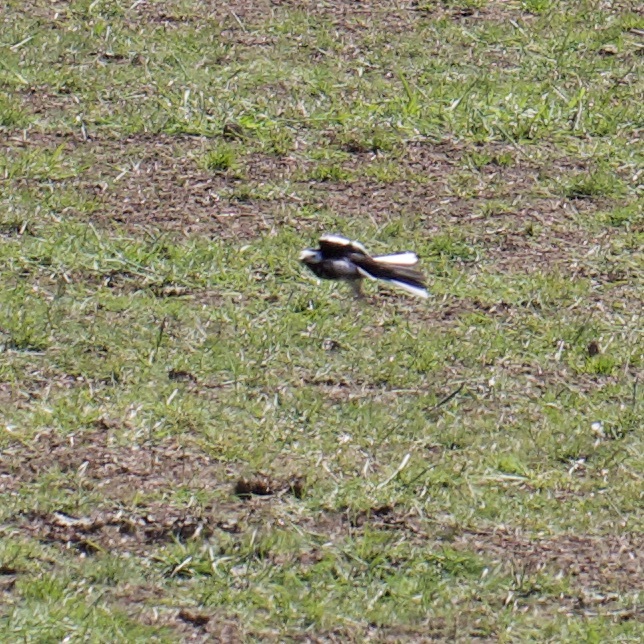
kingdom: Animalia
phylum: Chordata
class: Aves
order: Passeriformes
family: Motacillidae
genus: Motacilla
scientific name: Motacilla alba
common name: White wagtail
